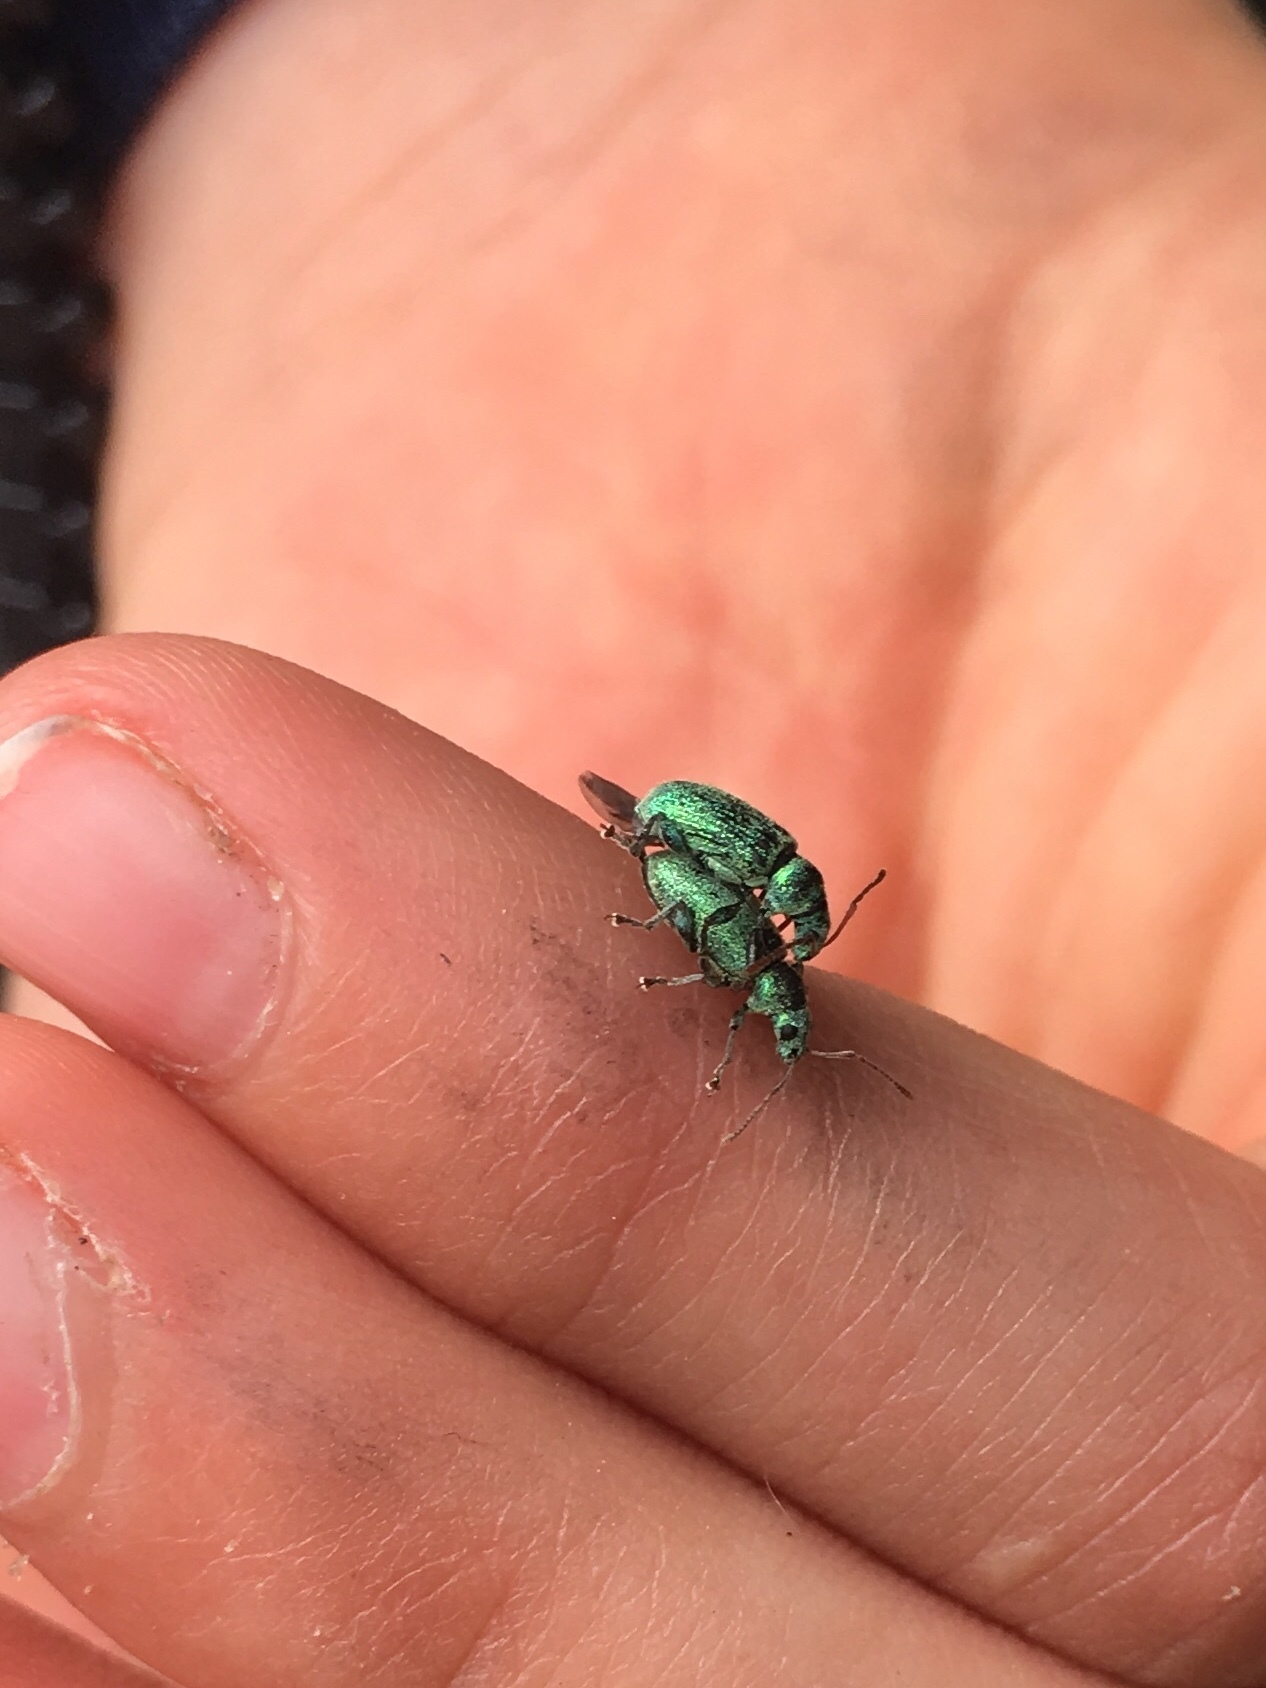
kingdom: Animalia
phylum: Arthropoda
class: Insecta
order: Coleoptera
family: Curculionidae
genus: Phyllobius
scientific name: Phyllobius argentatus
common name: Silver-green leaf weevil
